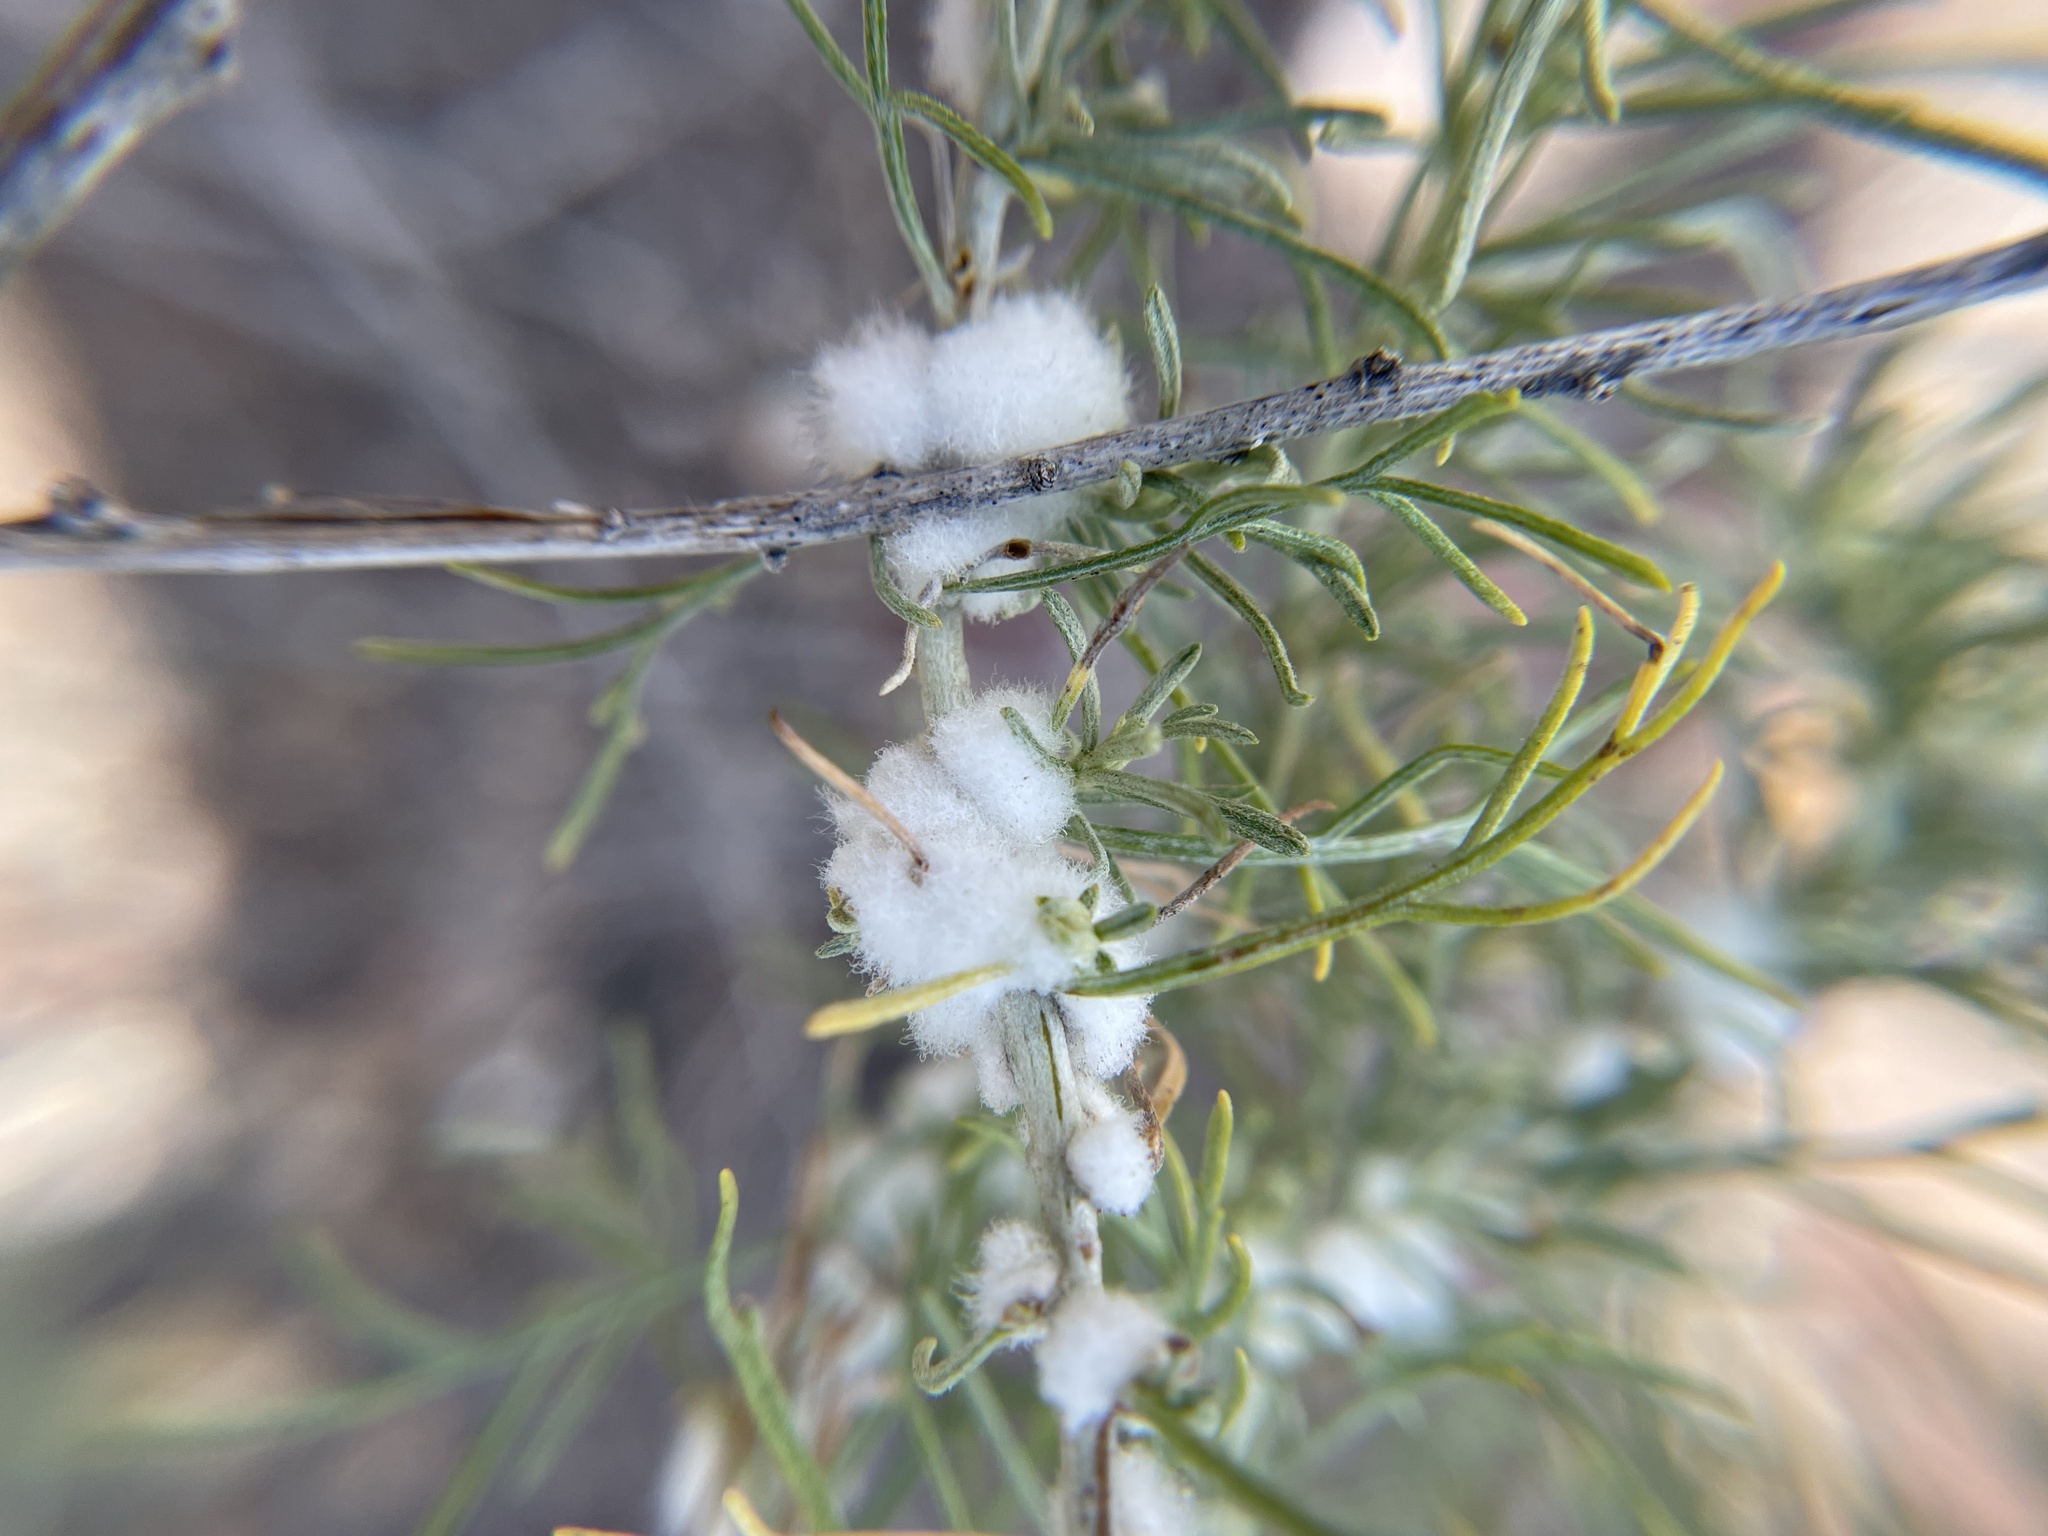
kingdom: Animalia
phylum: Arthropoda
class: Insecta
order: Diptera
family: Cecidomyiidae
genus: Rhopalomyia
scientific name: Rhopalomyia floccosa
